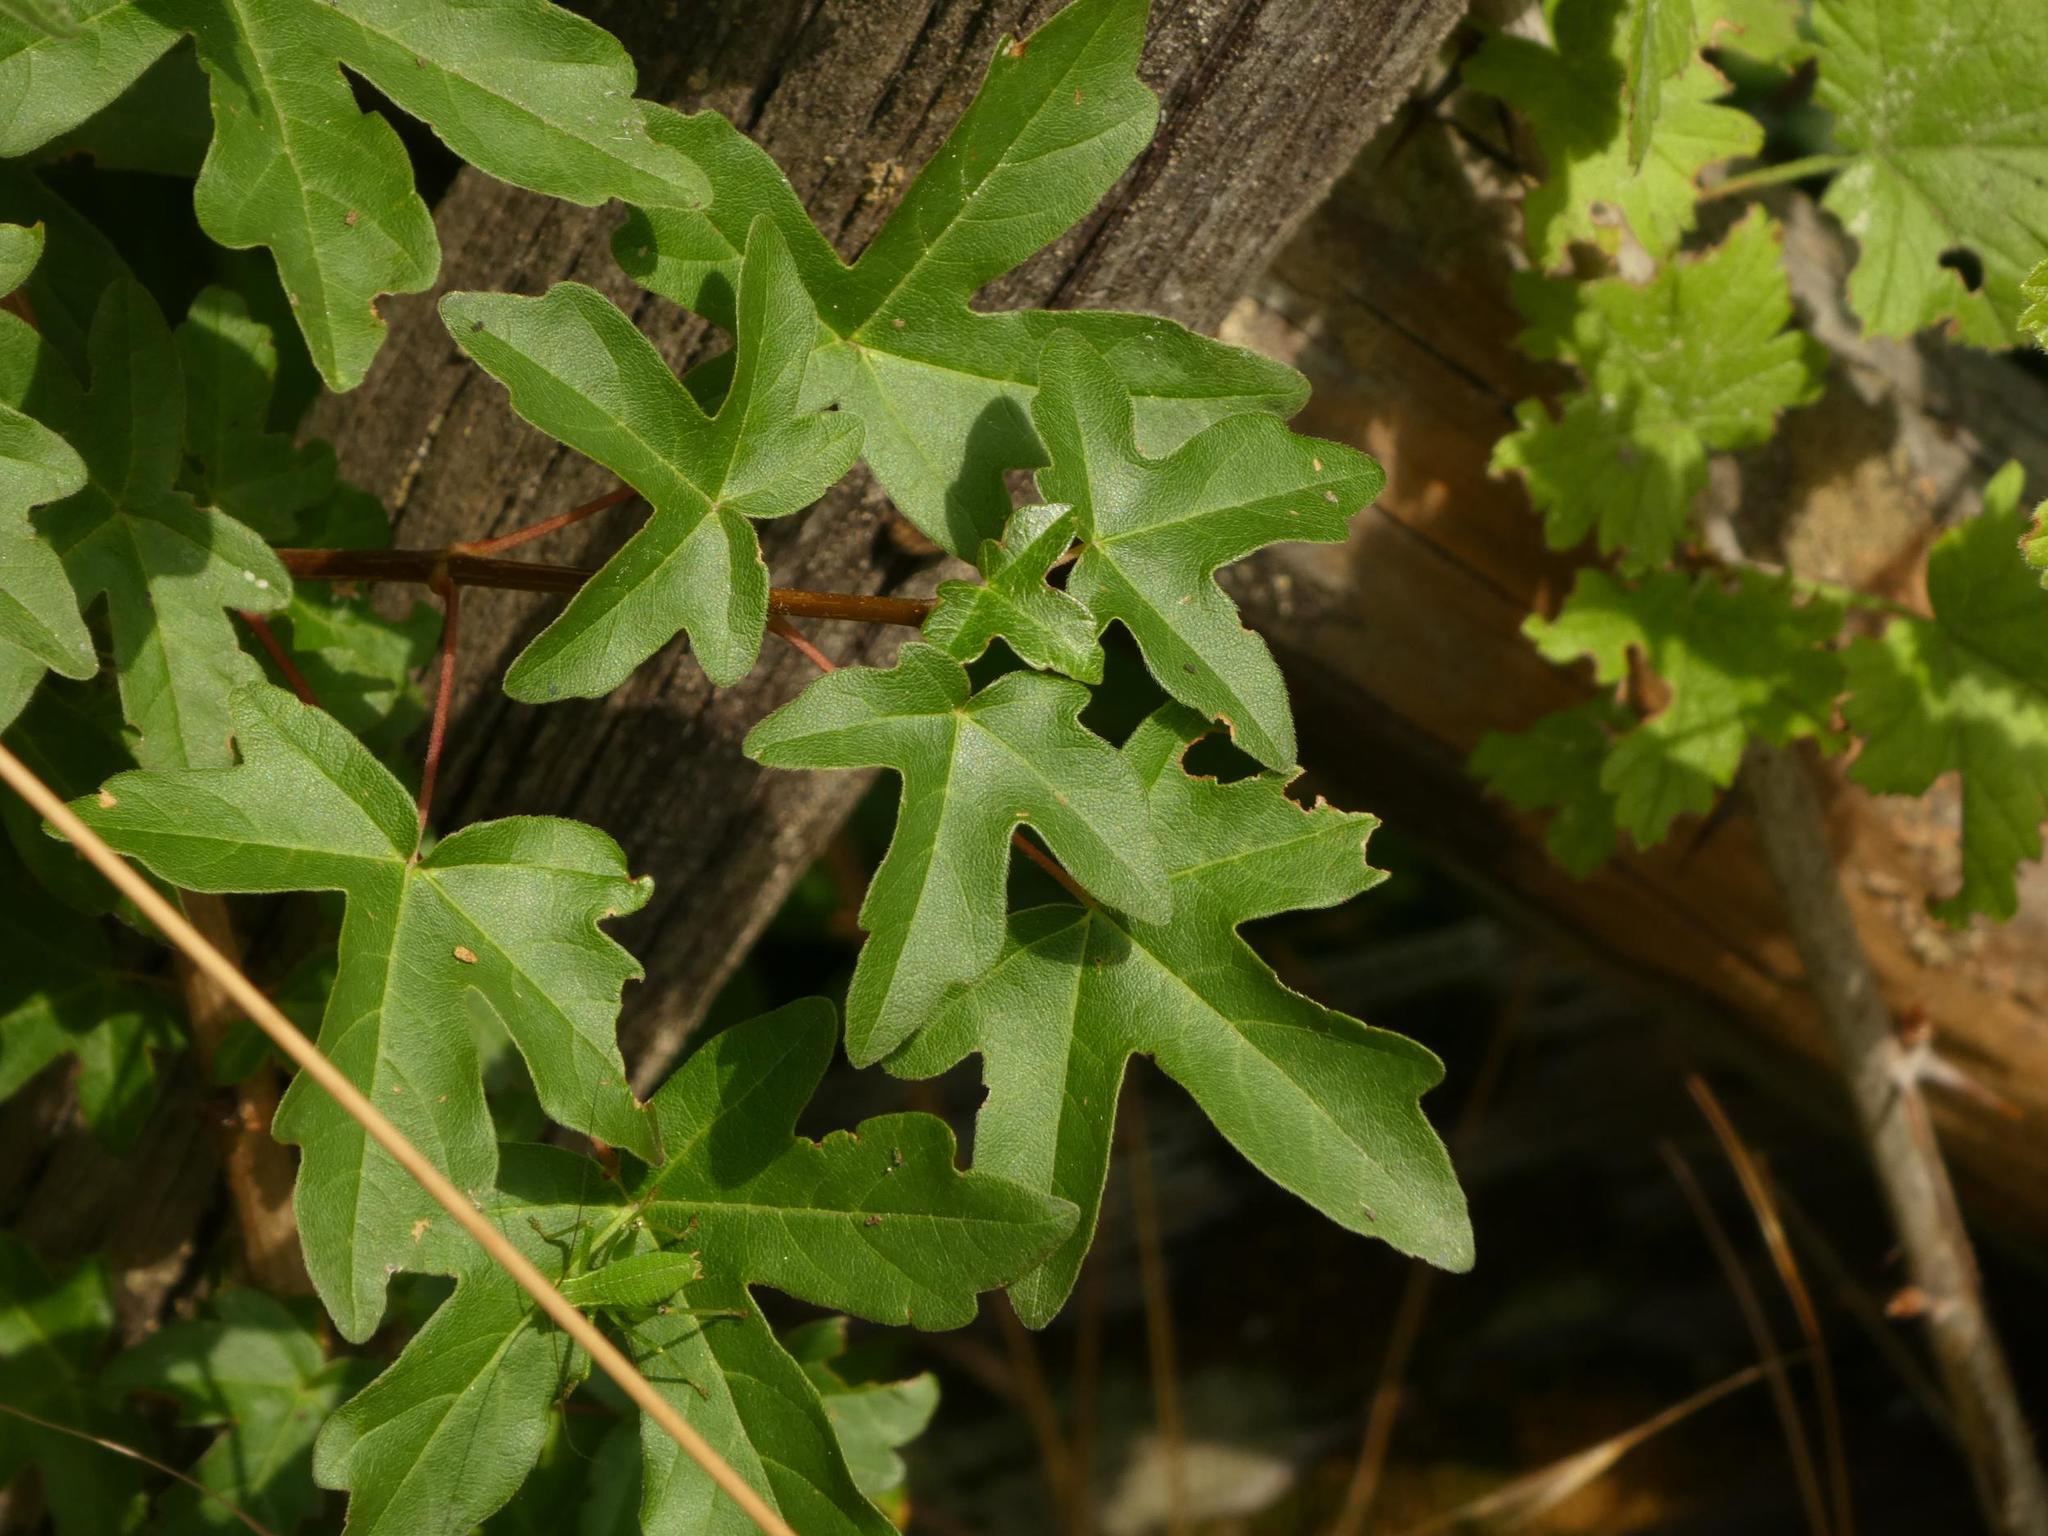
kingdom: Plantae
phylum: Tracheophyta
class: Magnoliopsida
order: Sapindales
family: Sapindaceae
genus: Acer
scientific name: Acer campestre
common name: Field maple
